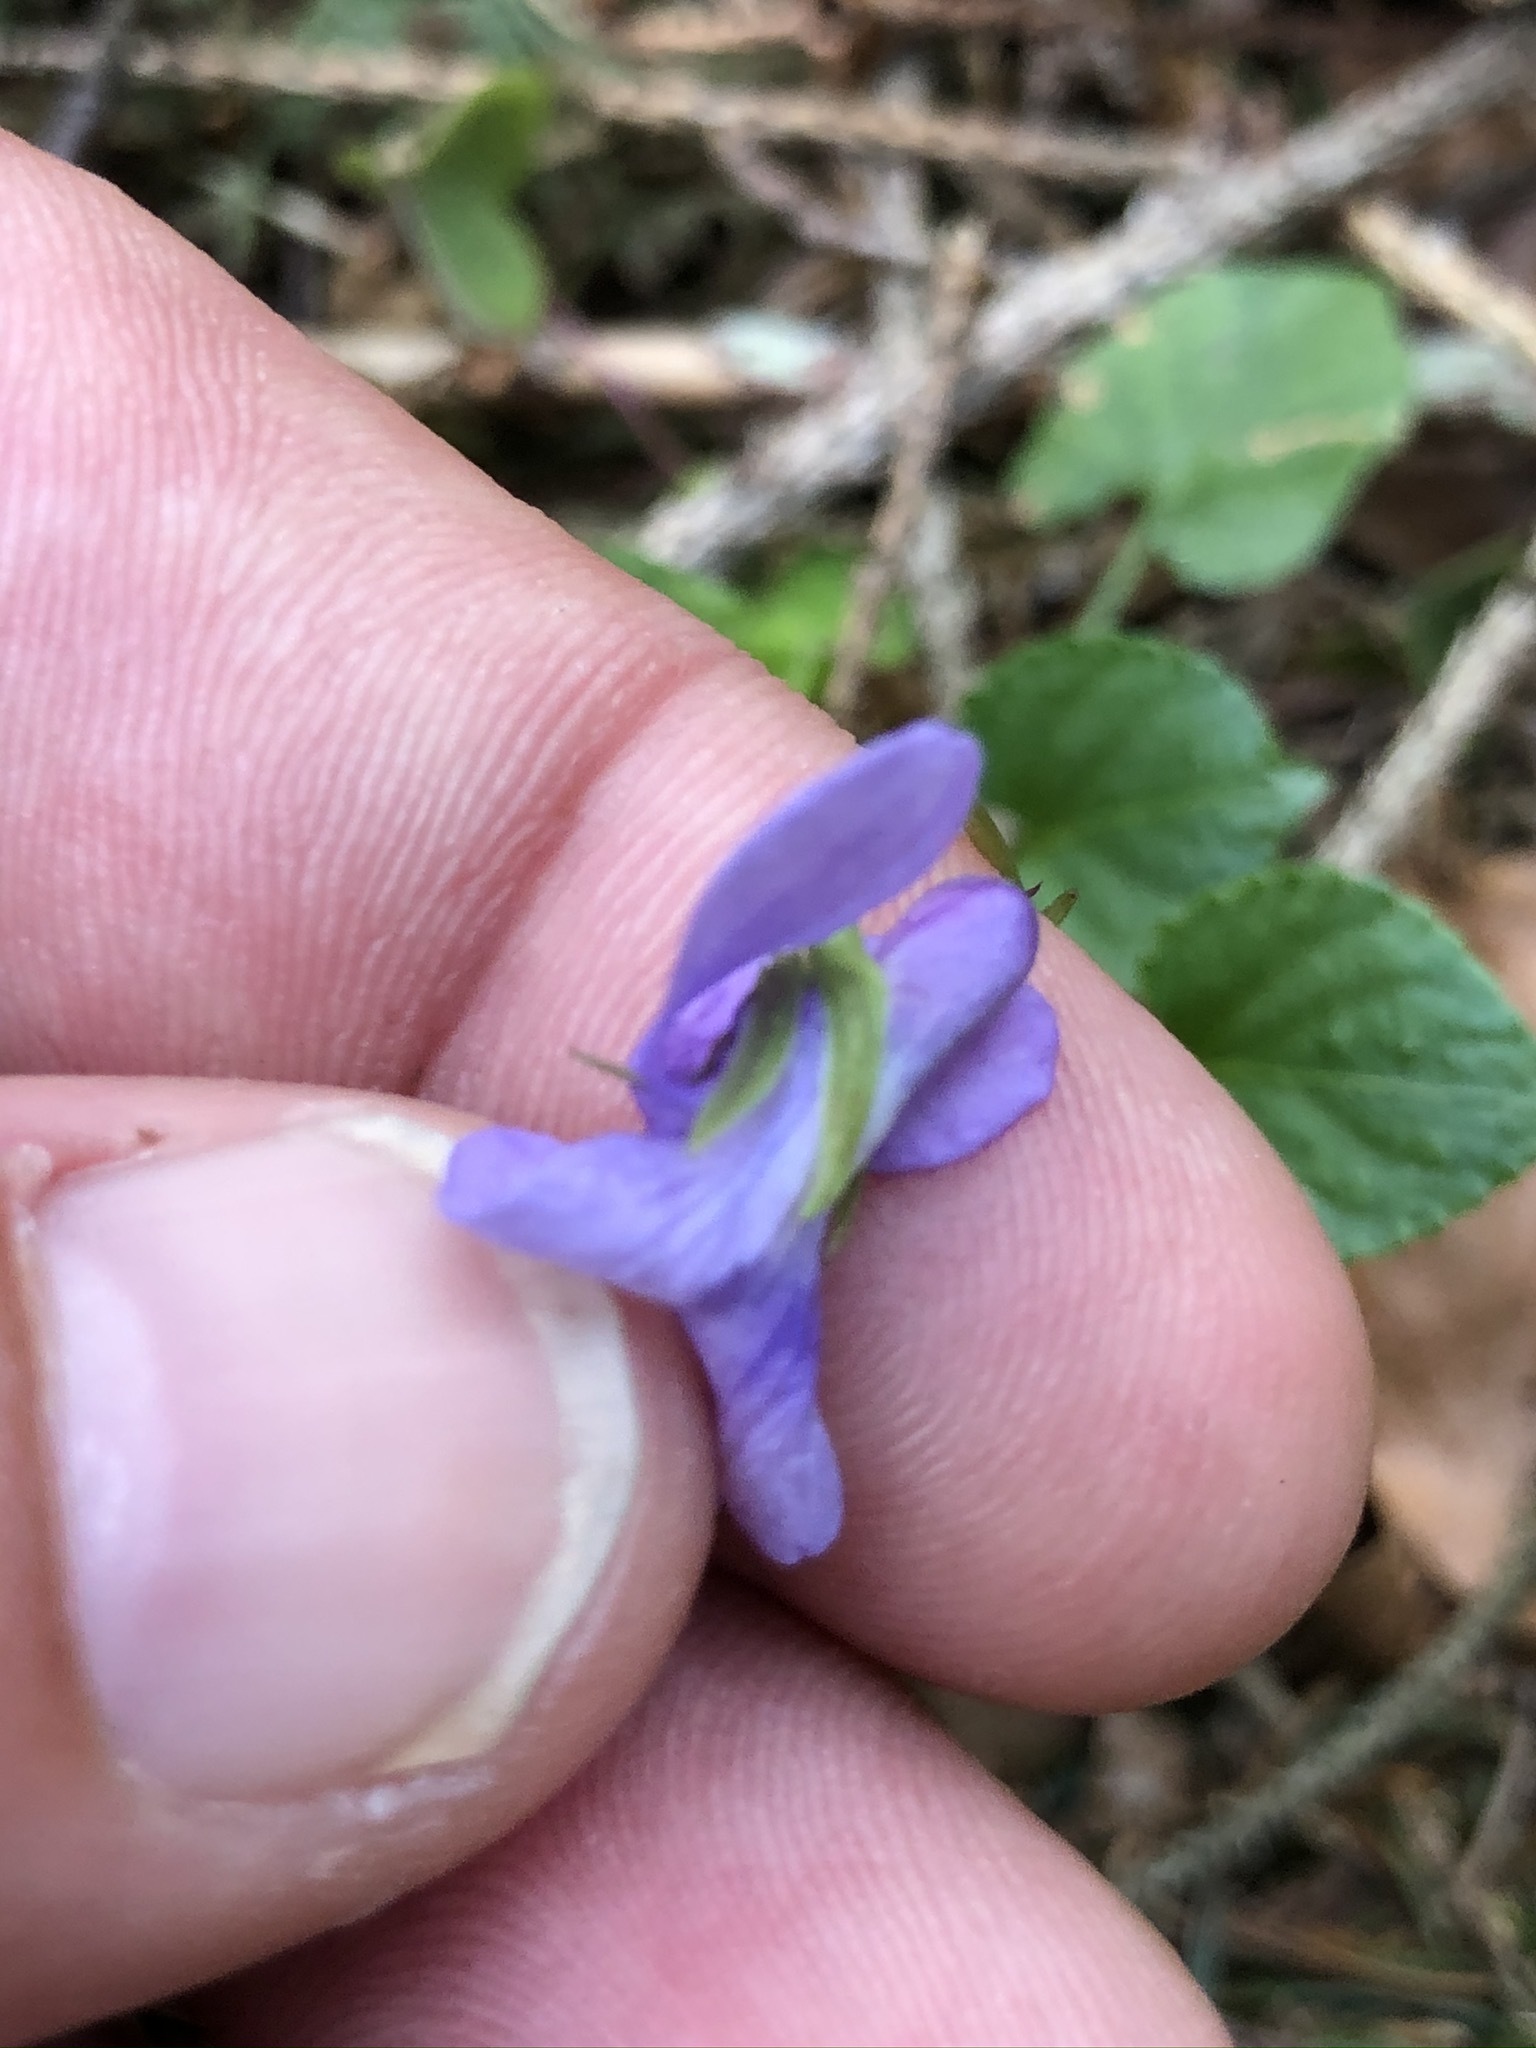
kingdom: Plantae
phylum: Tracheophyta
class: Magnoliopsida
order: Malpighiales
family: Violaceae
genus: Viola
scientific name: Viola reichenbachiana
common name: Early dog-violet
